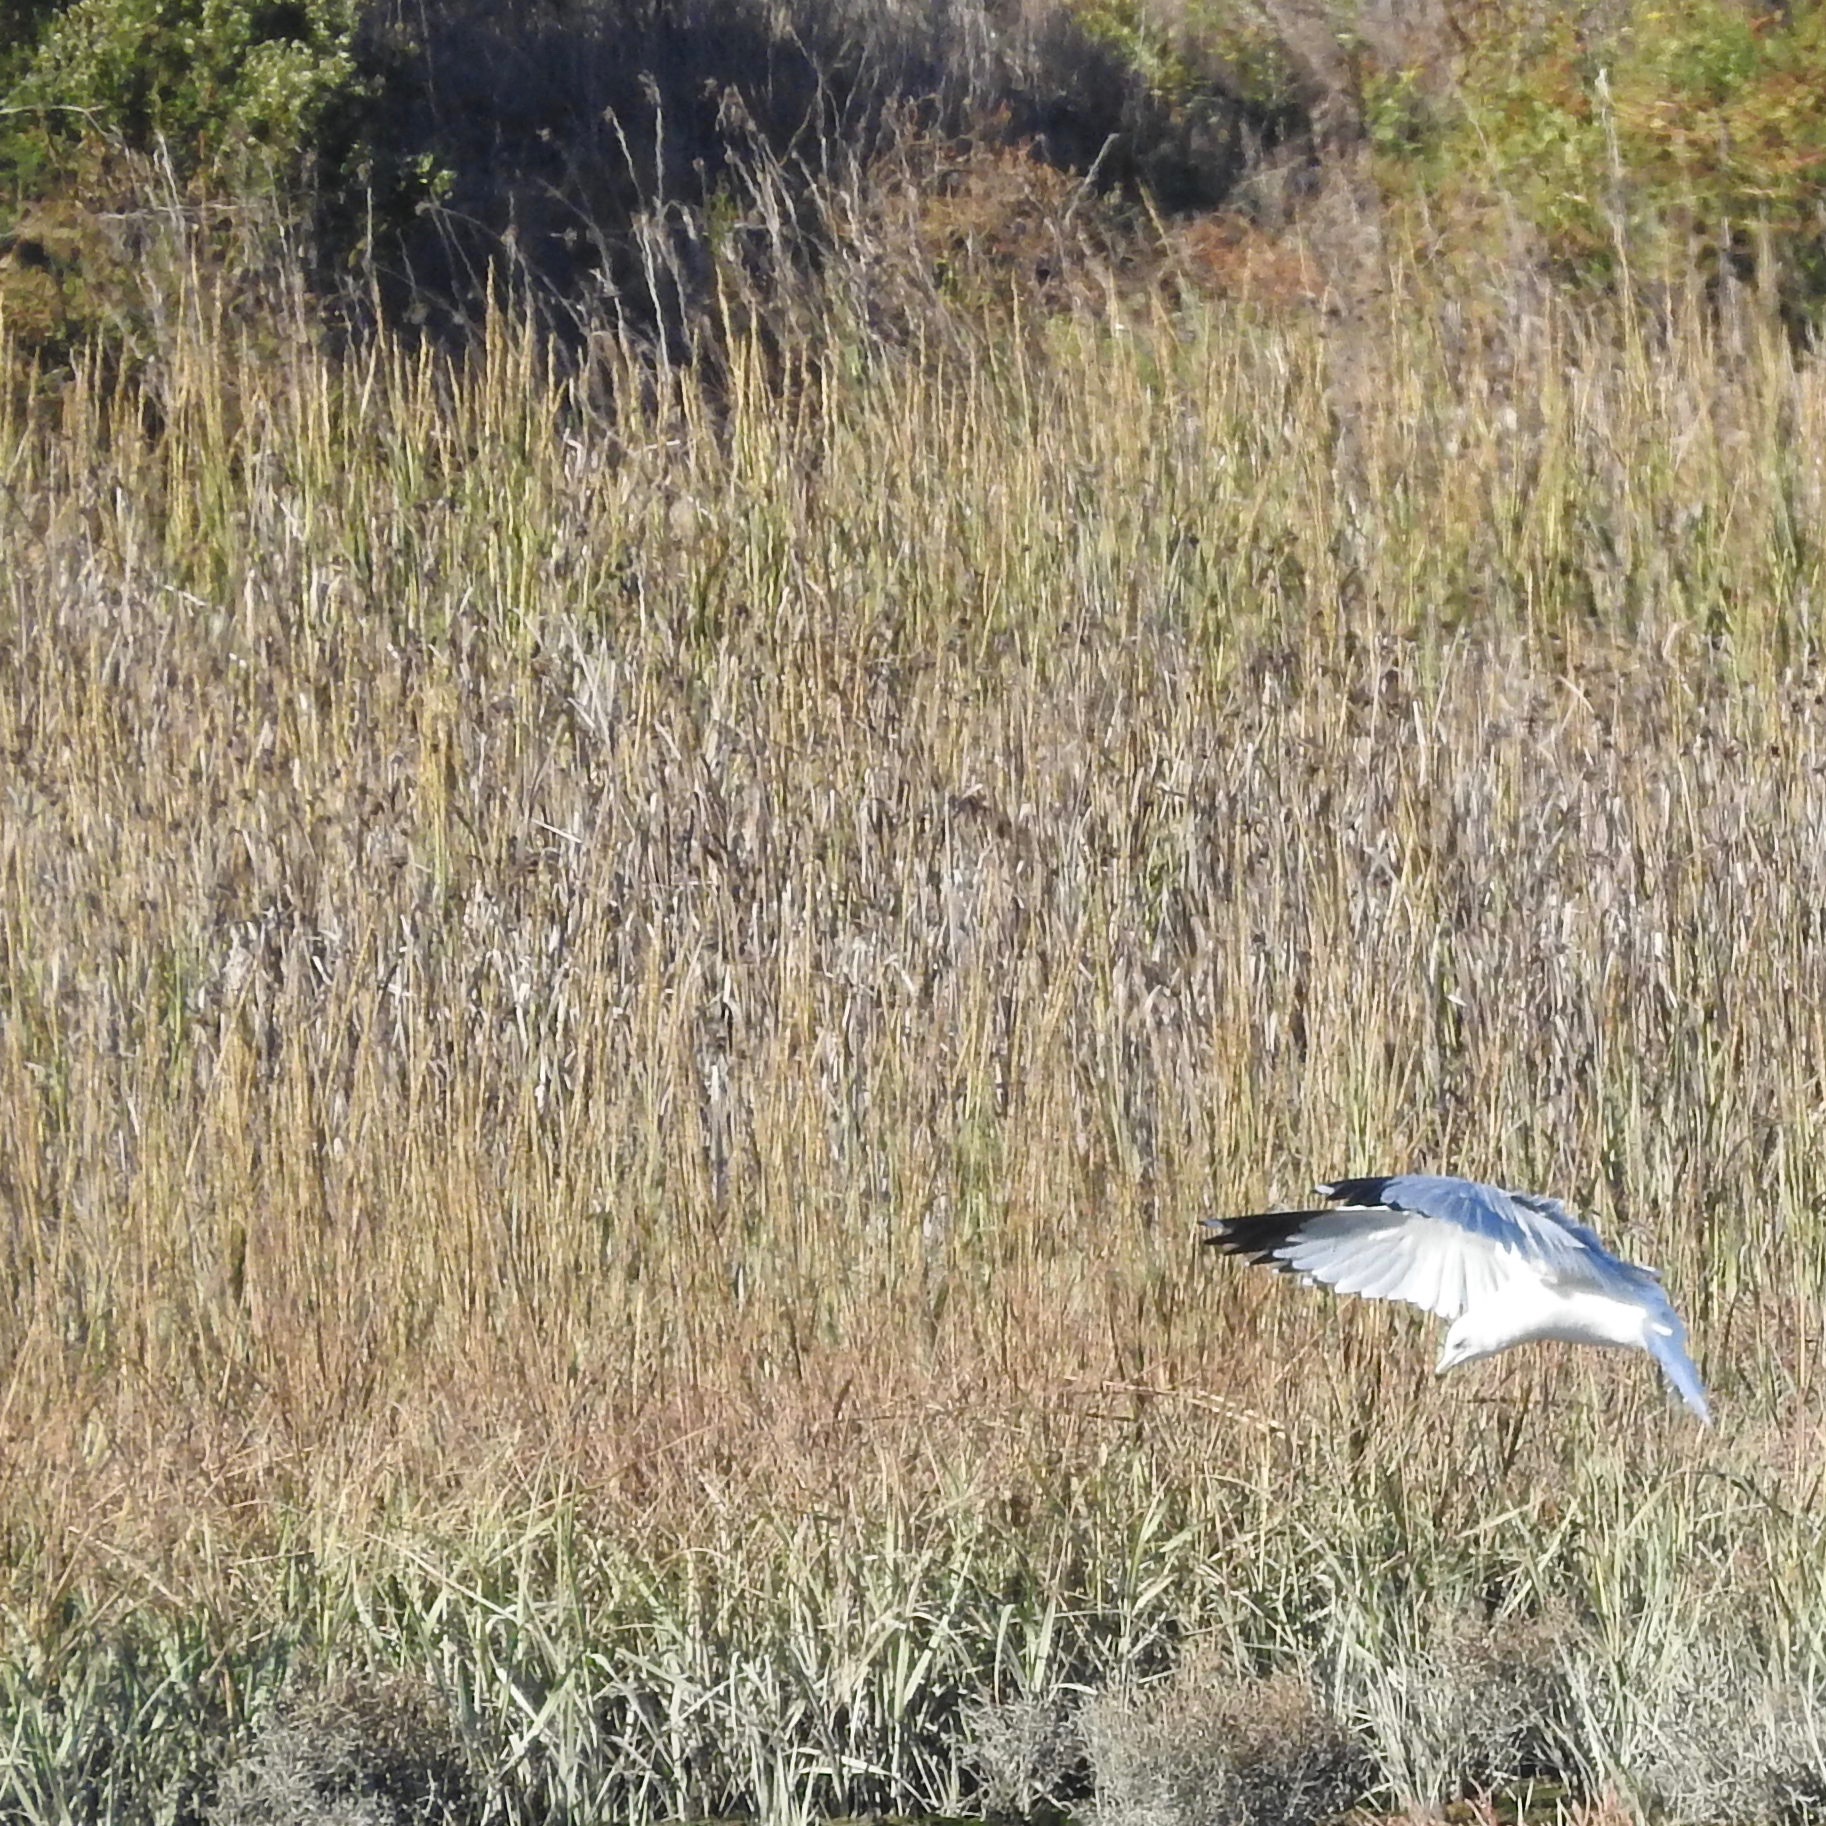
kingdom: Animalia
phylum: Chordata
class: Aves
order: Charadriiformes
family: Laridae
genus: Larus
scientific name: Larus delawarensis
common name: Ring-billed gull
